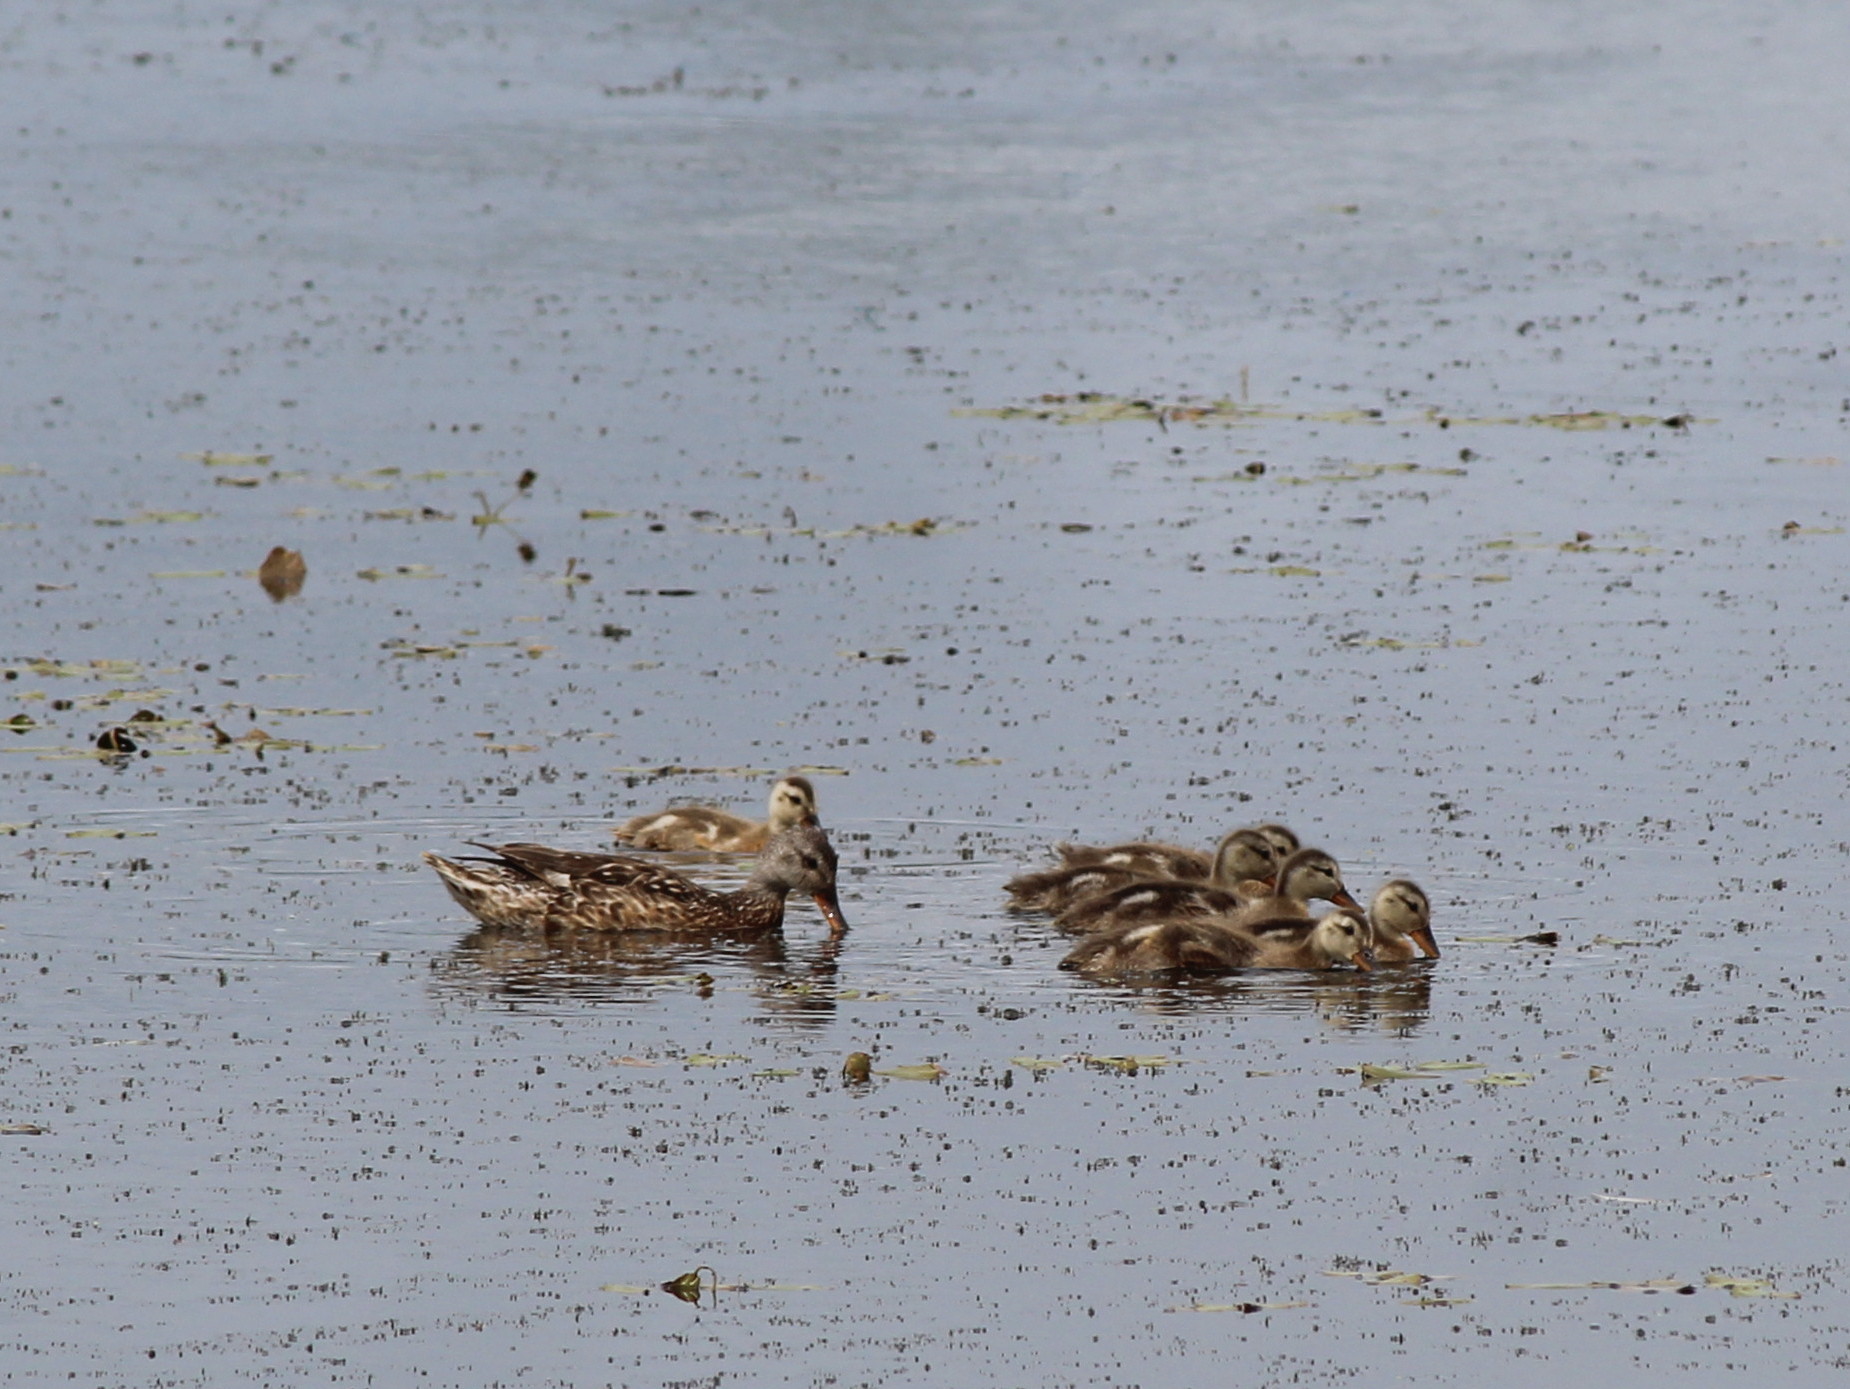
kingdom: Animalia
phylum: Chordata
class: Aves
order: Anseriformes
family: Anatidae
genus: Anas
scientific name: Anas platyrhynchos
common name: Mallard
